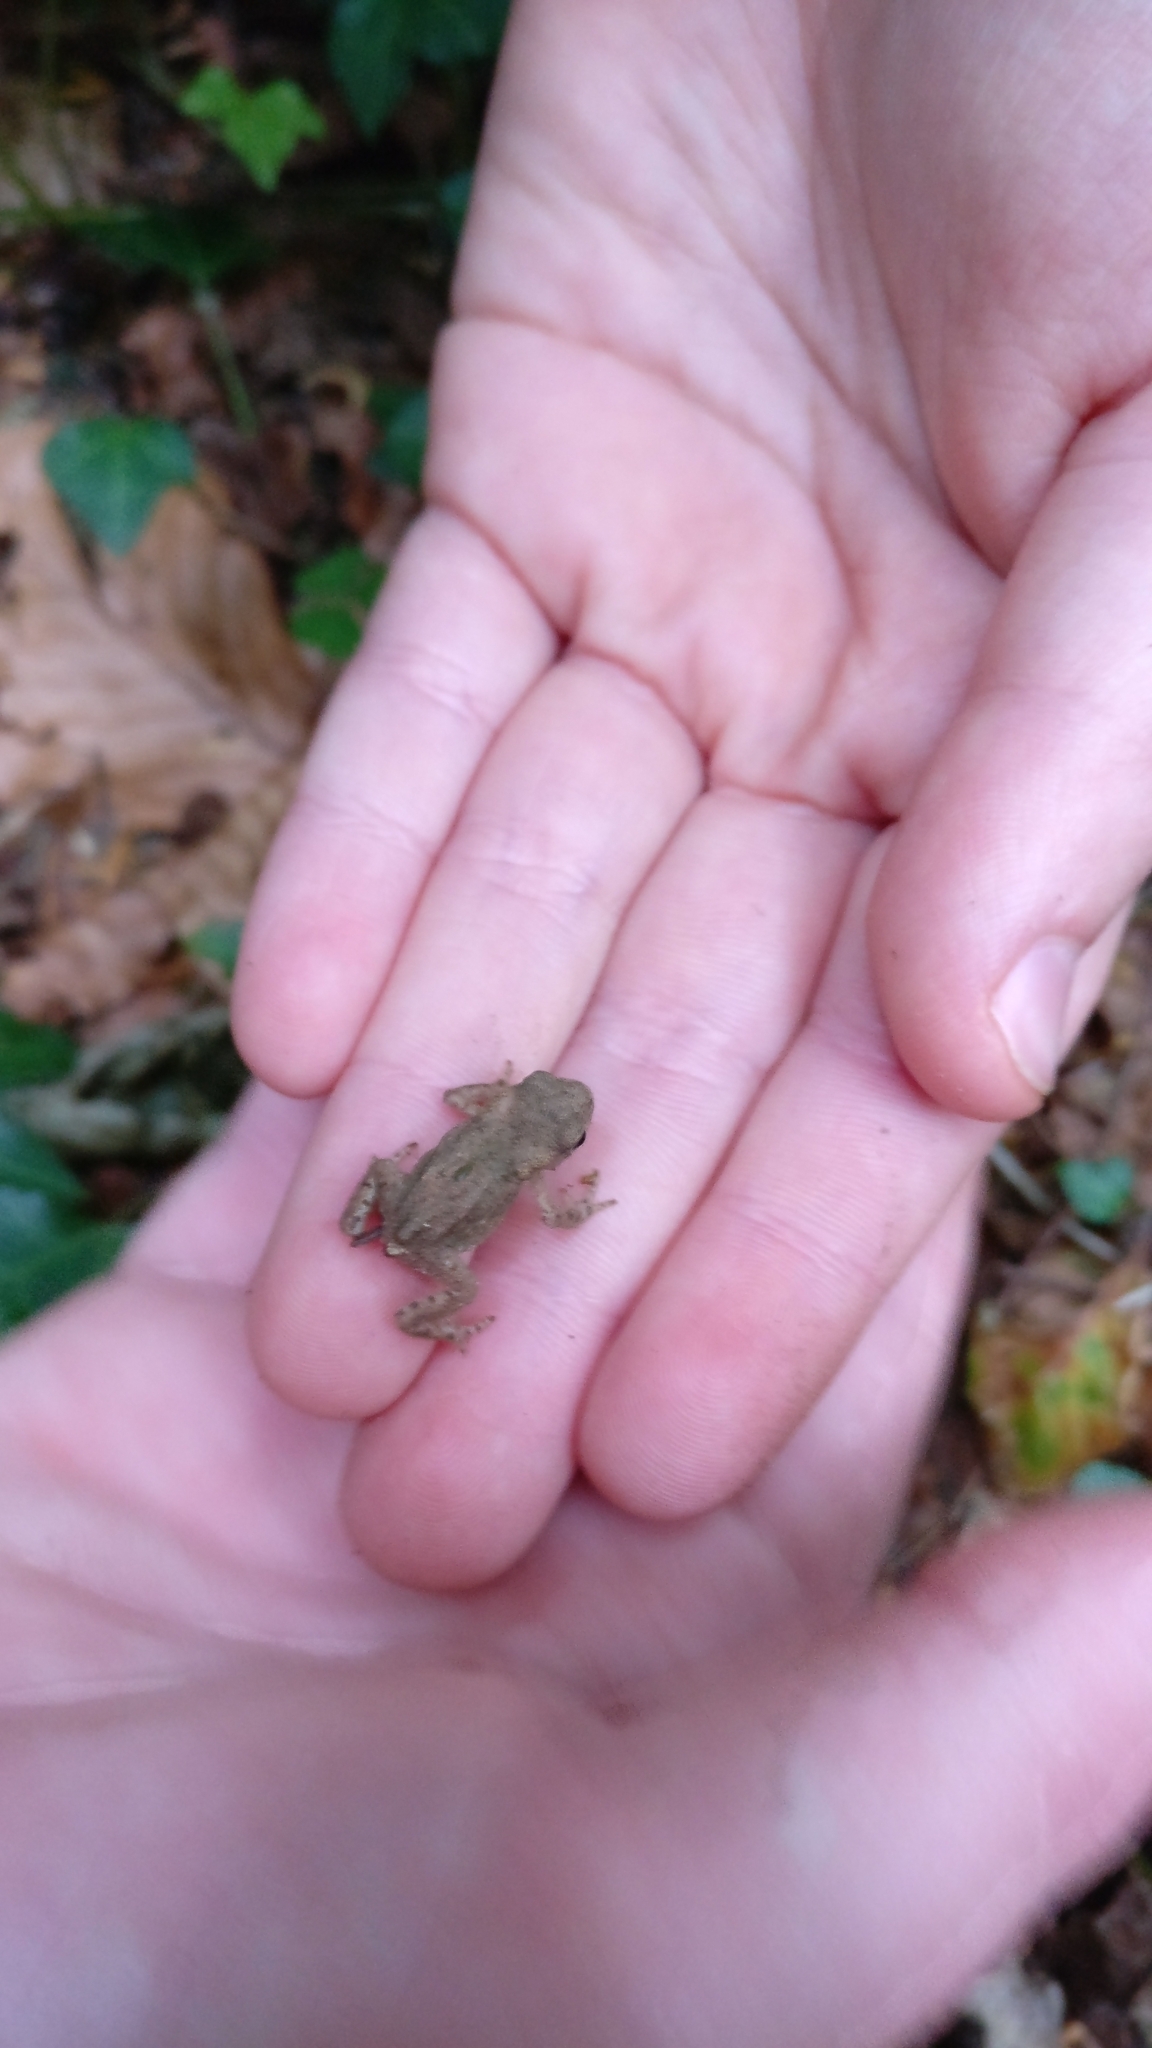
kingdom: Animalia
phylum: Chordata
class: Amphibia
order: Anura
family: Bufonidae
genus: Bufo
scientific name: Bufo bufo
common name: Common toad
